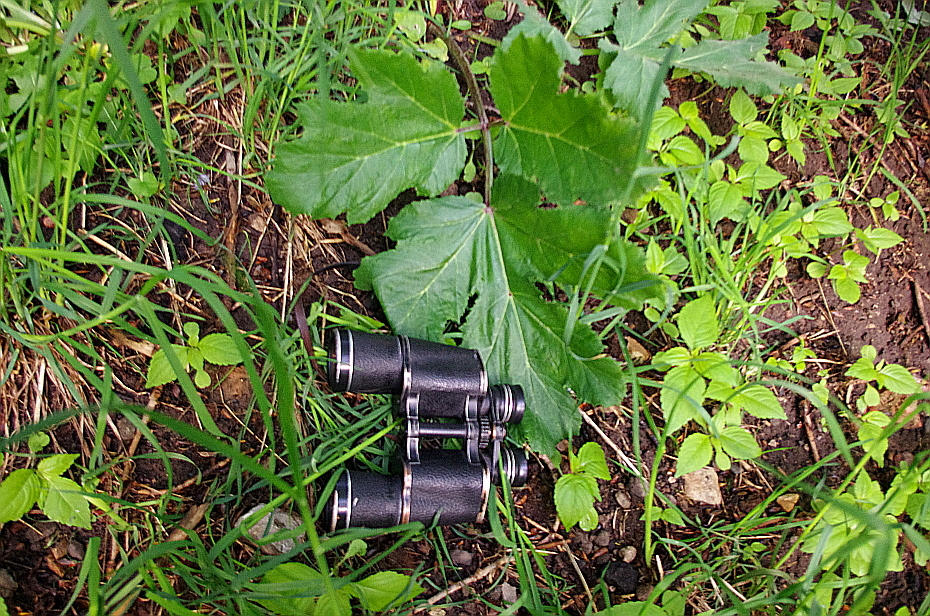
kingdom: Plantae
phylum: Tracheophyta
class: Magnoliopsida
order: Apiales
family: Apiaceae
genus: Heracleum
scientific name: Heracleum sosnowskyi
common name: Sosnowsky's hogweed
